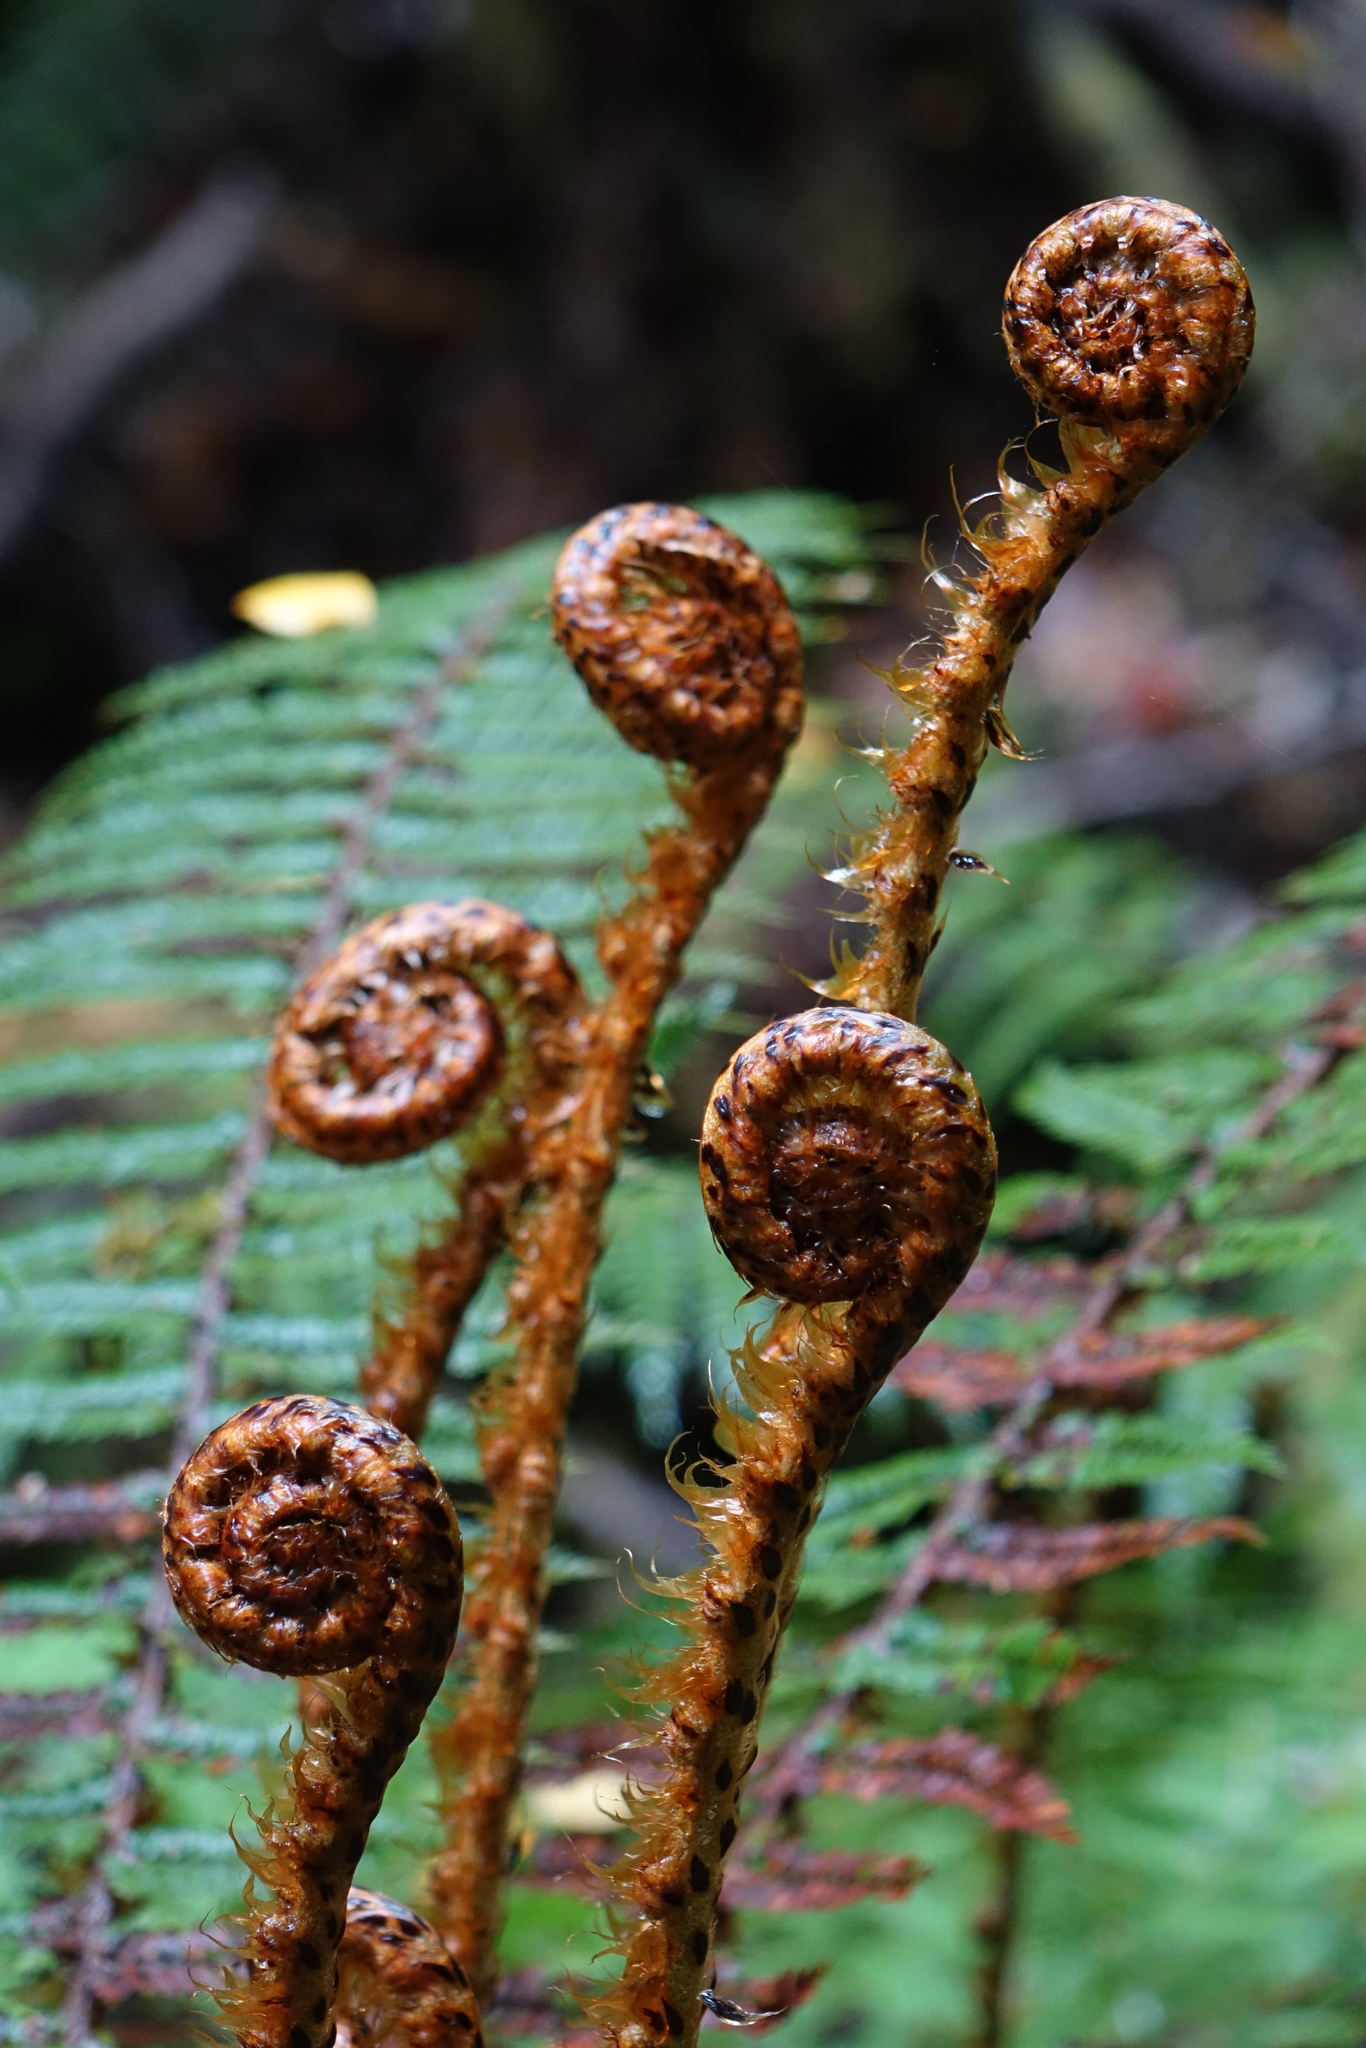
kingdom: Plantae
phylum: Tracheophyta
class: Polypodiopsida
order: Polypodiales
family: Dryopteridaceae
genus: Polystichum
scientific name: Polystichum vestitum
